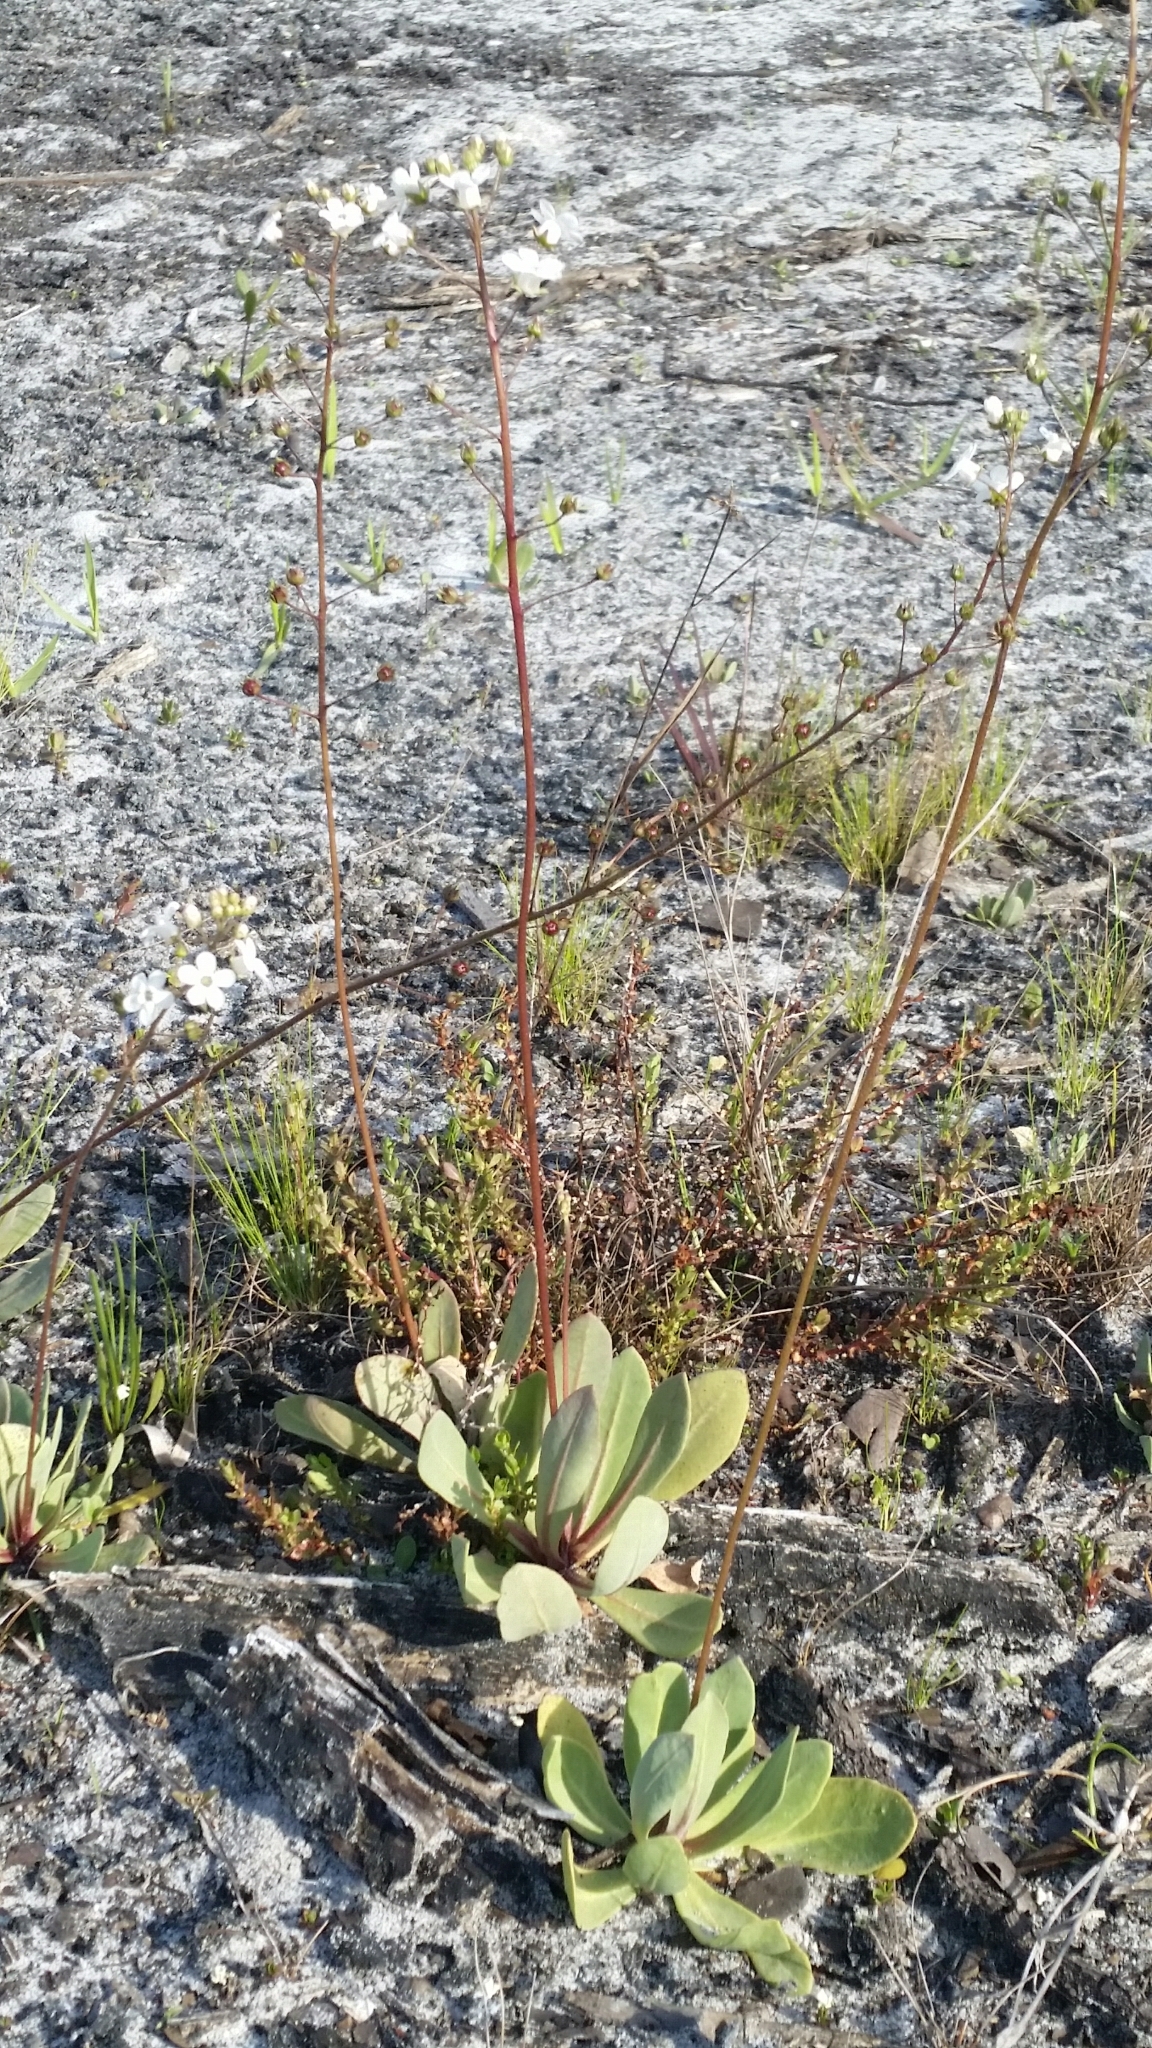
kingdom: Plantae
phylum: Tracheophyta
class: Magnoliopsida
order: Ericales
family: Primulaceae
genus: Samolus
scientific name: Samolus ebracteatus
